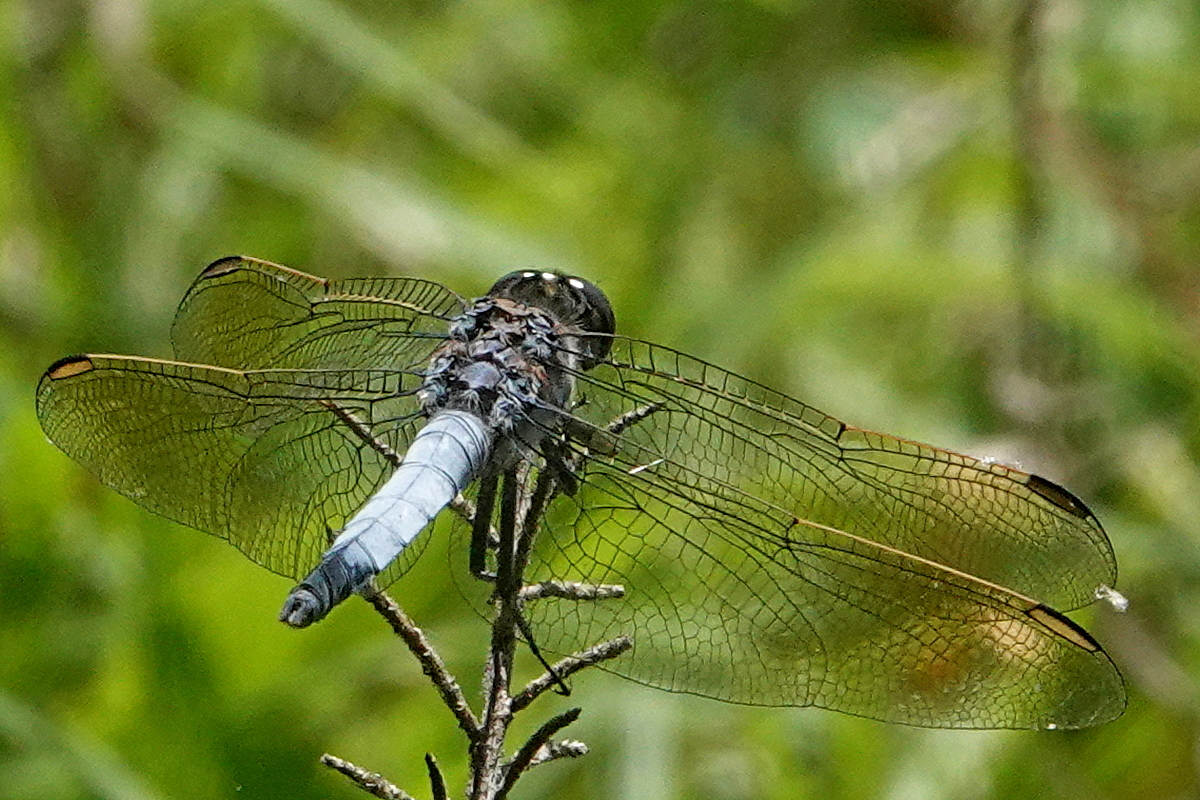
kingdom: Animalia
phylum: Arthropoda
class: Insecta
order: Odonata
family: Libellulidae
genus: Orthetrum
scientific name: Orthetrum caledonicum
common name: Blue skimmer
